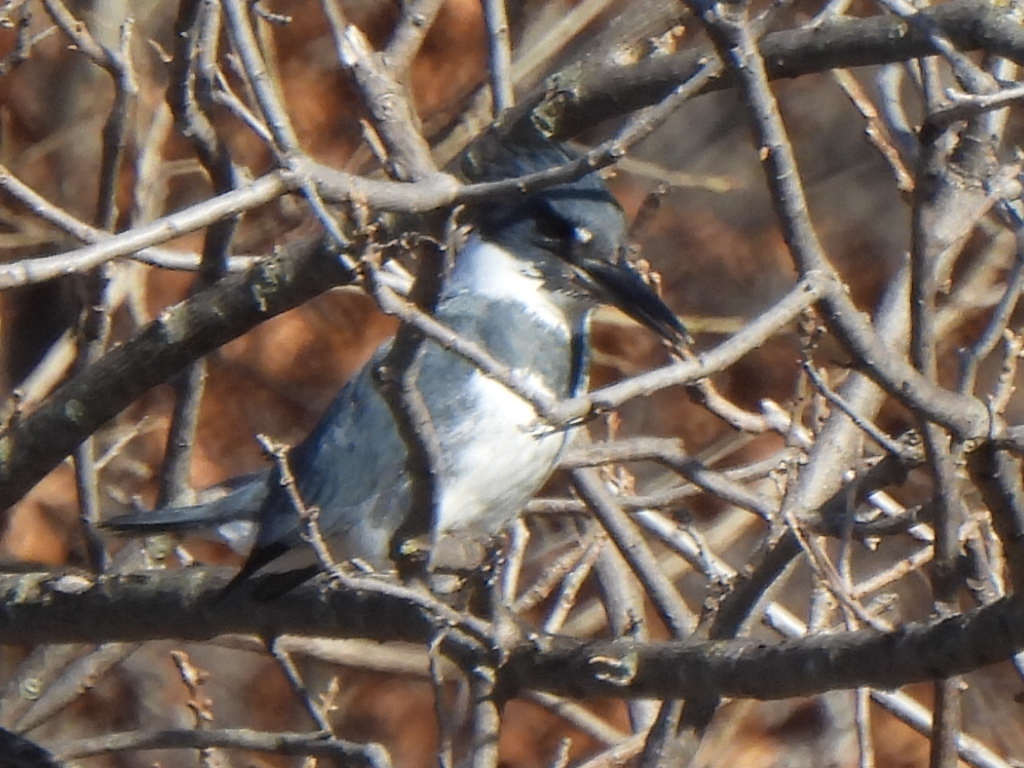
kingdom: Animalia
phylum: Chordata
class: Aves
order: Coraciiformes
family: Alcedinidae
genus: Megaceryle
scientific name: Megaceryle alcyon
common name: Belted kingfisher
